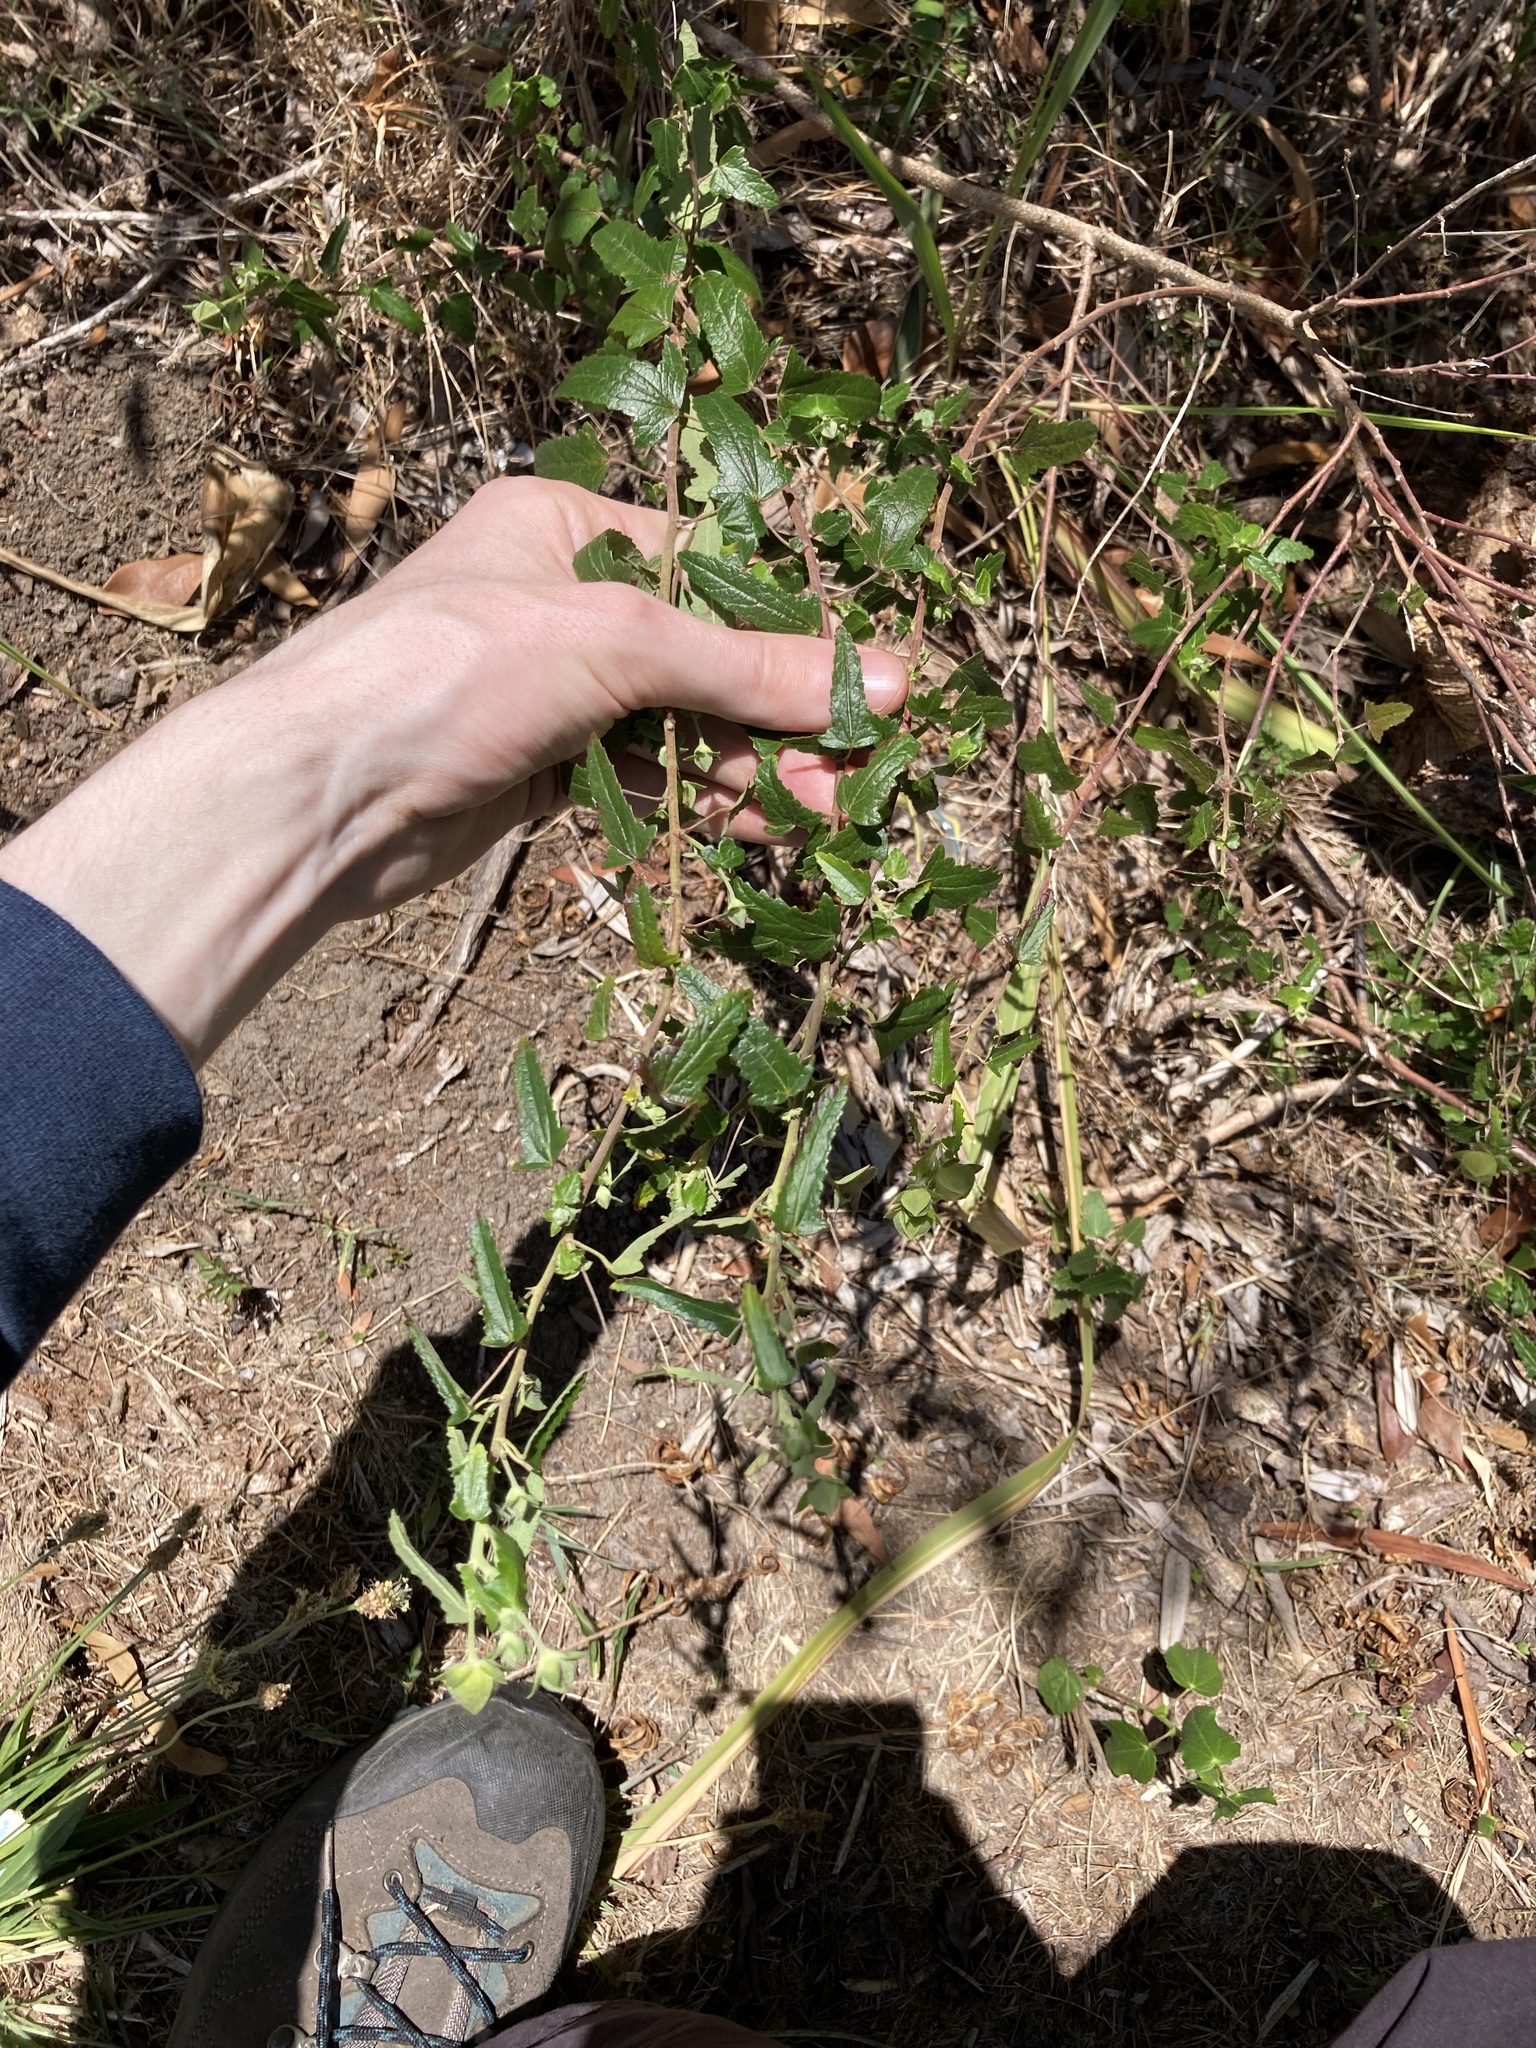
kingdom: Plantae
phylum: Tracheophyta
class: Magnoliopsida
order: Malvales
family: Malvaceae
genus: Pavonia
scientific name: Pavonia hastata
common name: Spearleaf swampmallow
